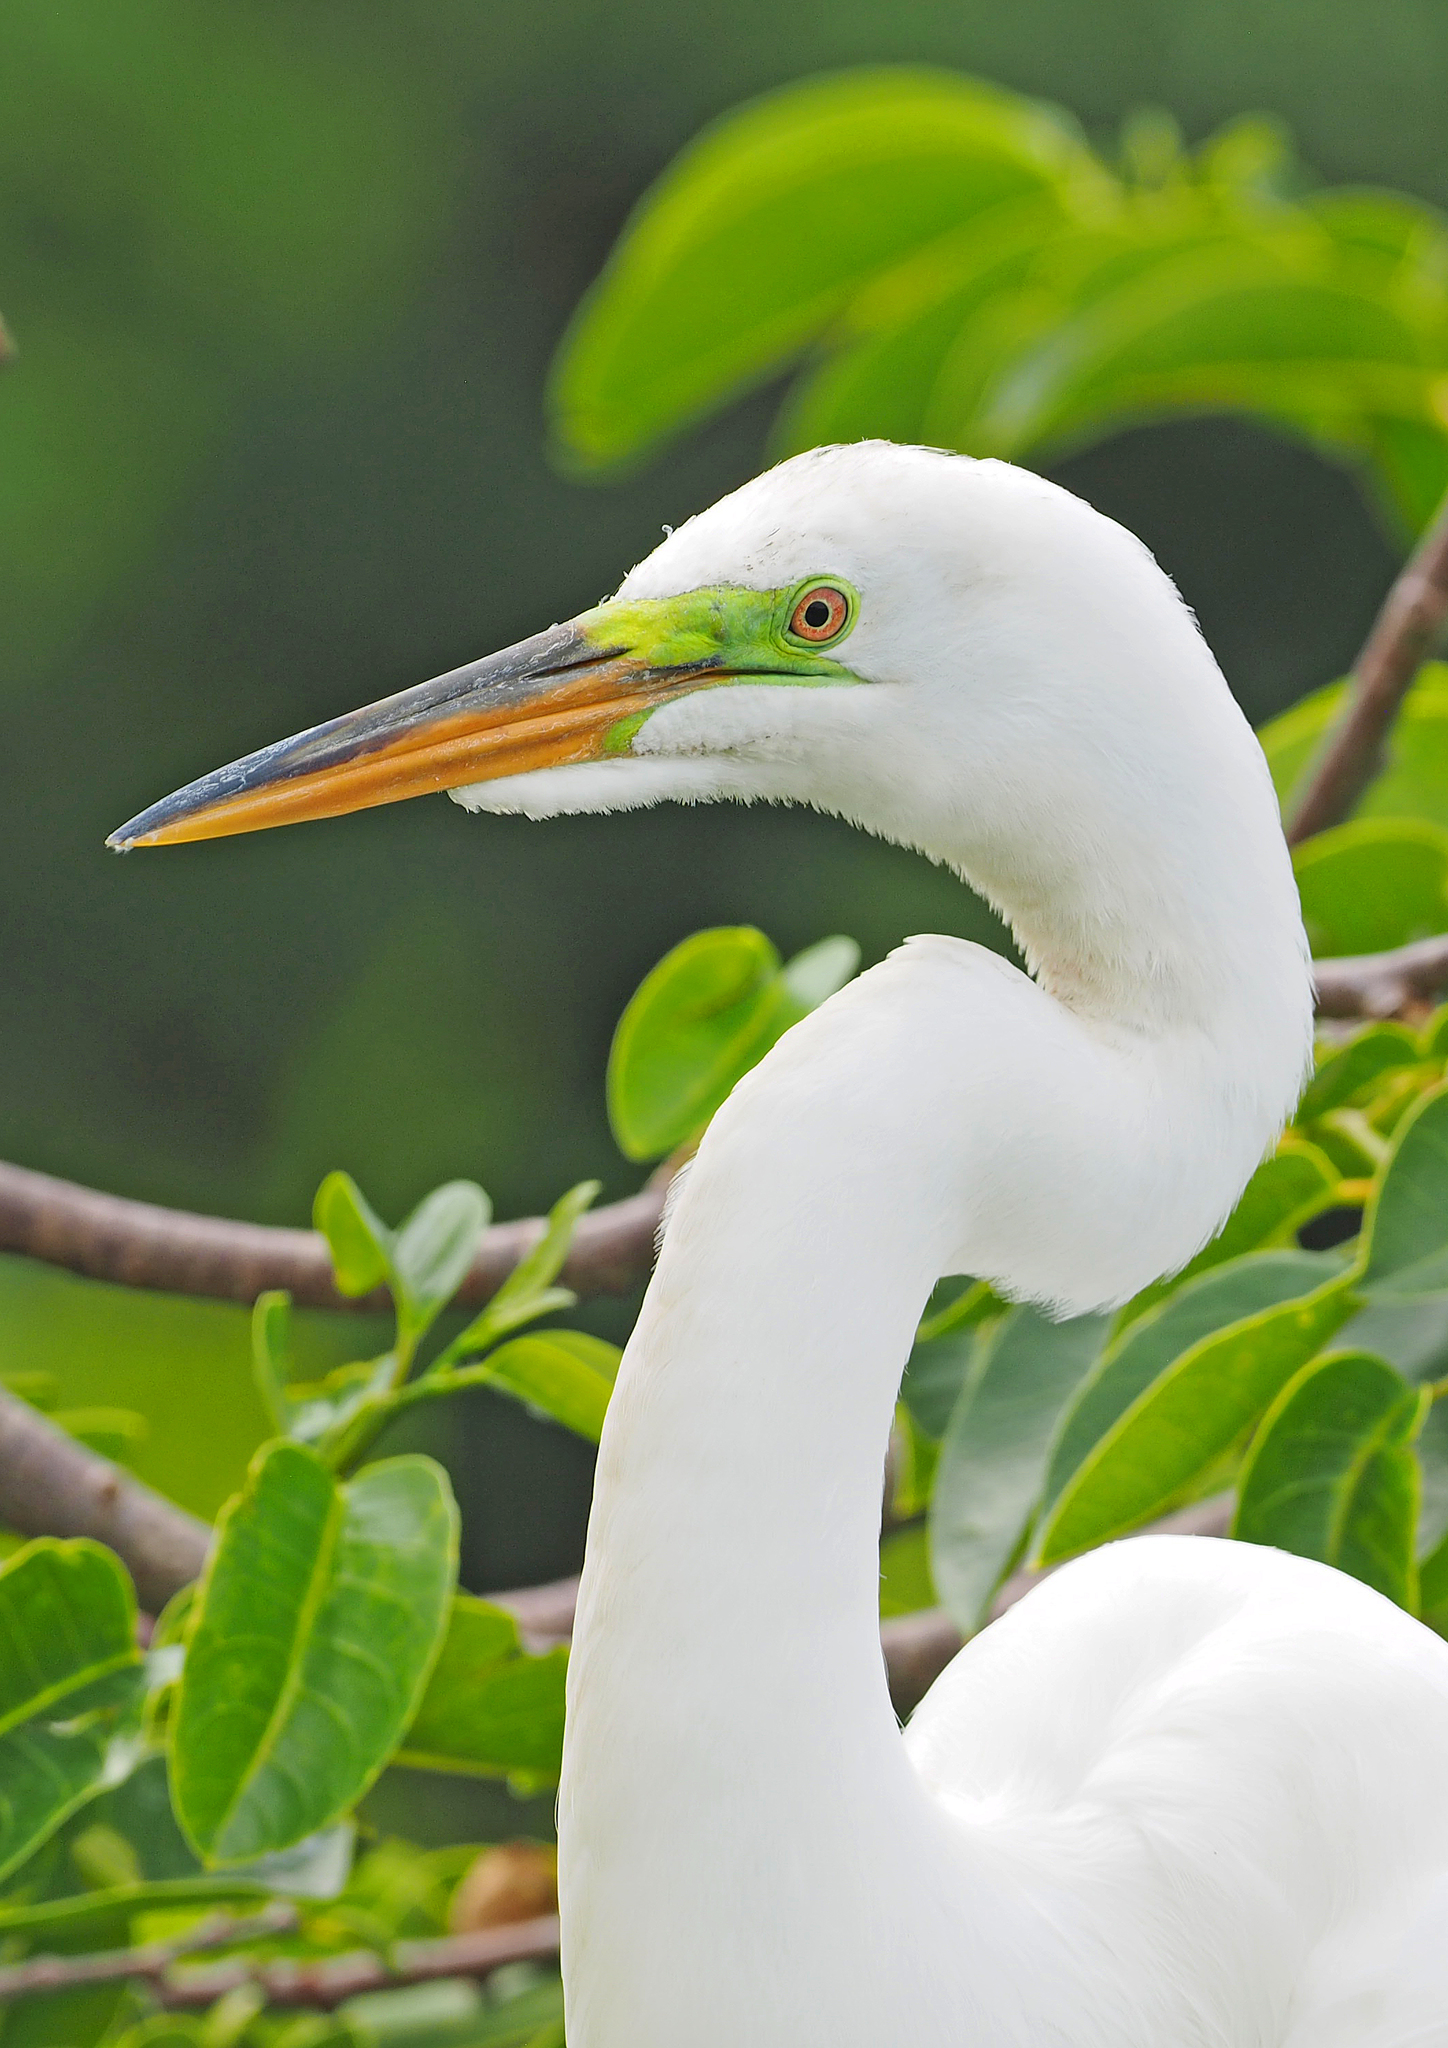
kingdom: Animalia
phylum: Chordata
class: Aves
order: Pelecaniformes
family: Ardeidae
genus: Ardea
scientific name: Ardea alba
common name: Great egret
